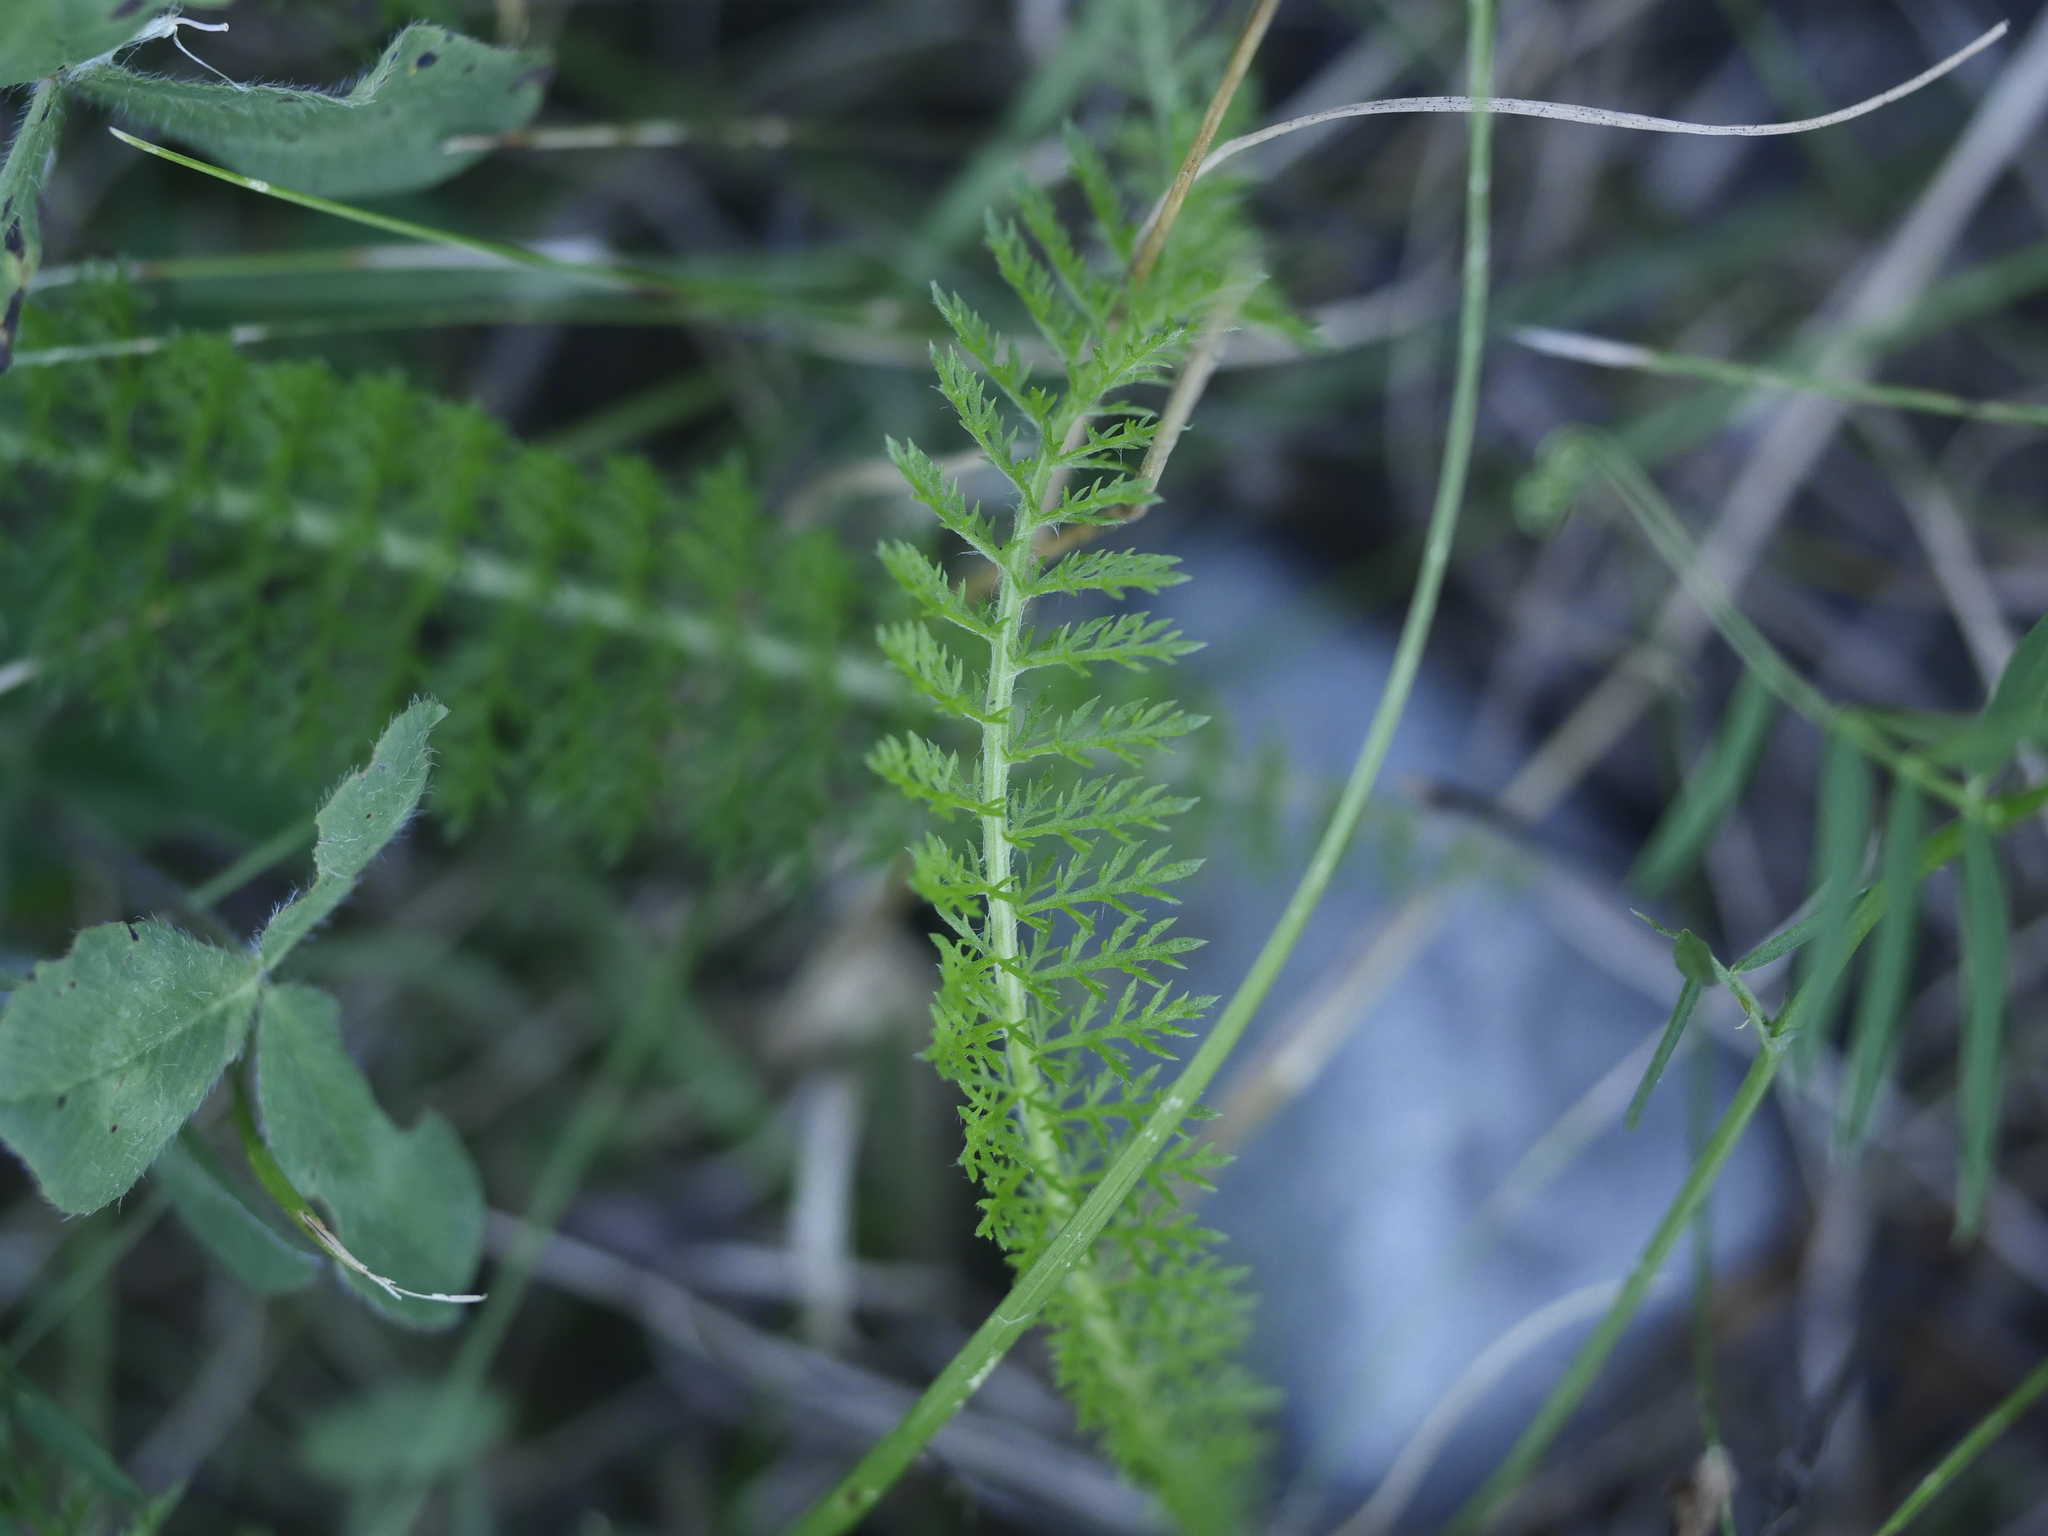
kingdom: Plantae
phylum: Tracheophyta
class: Magnoliopsida
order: Asterales
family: Asteraceae
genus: Achillea
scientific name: Achillea millefolium
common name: Yarrow
